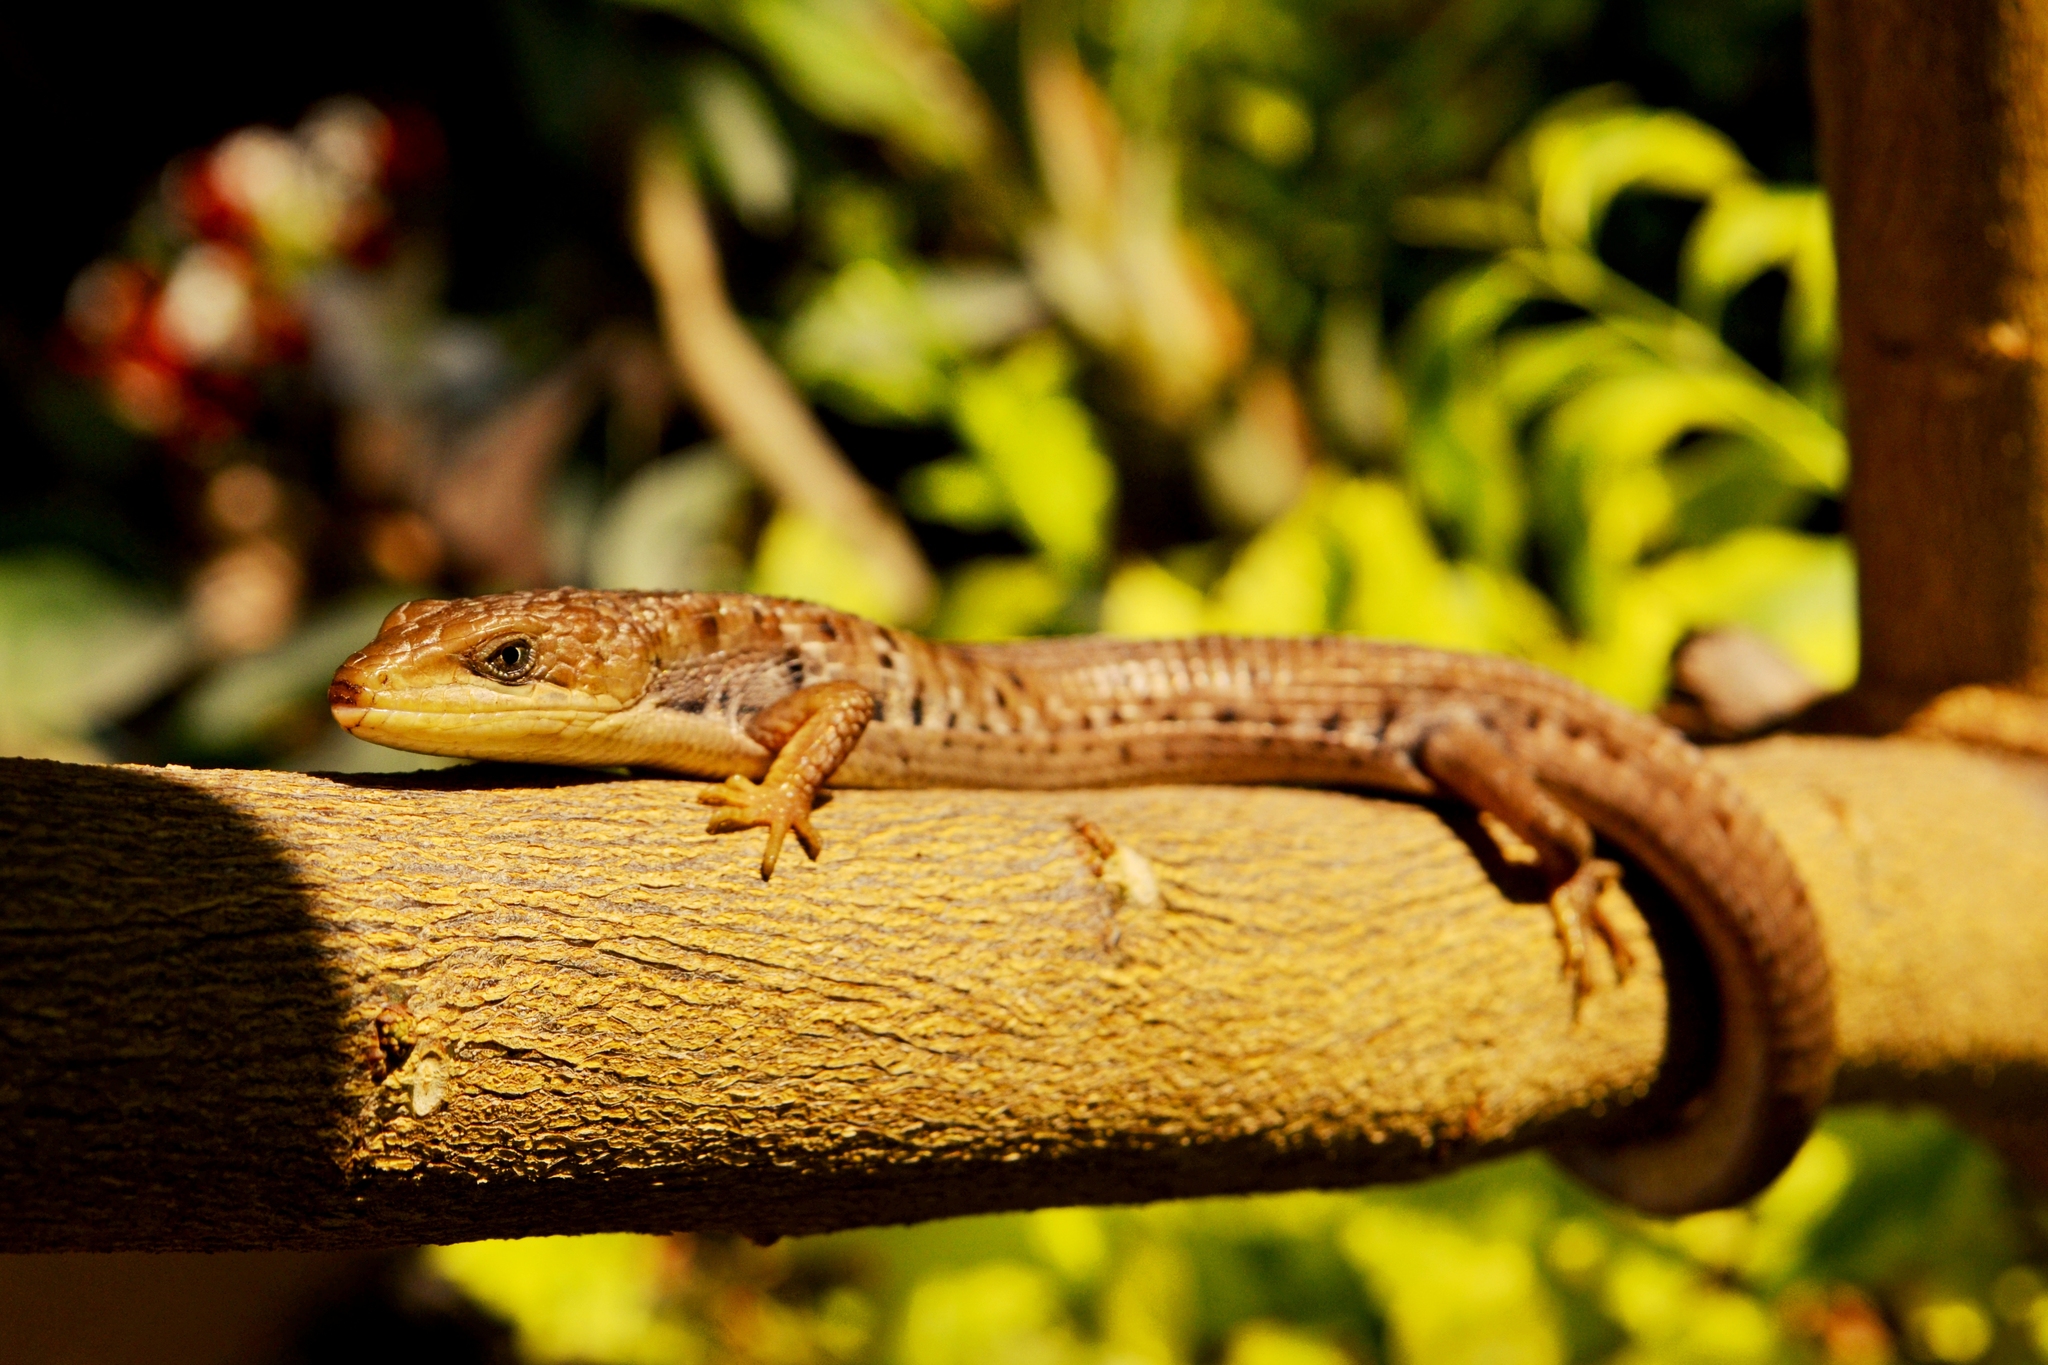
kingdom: Animalia
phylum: Chordata
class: Squamata
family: Anguidae
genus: Gerrhonotus
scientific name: Gerrhonotus liocephalus
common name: Texas alligator lizard
